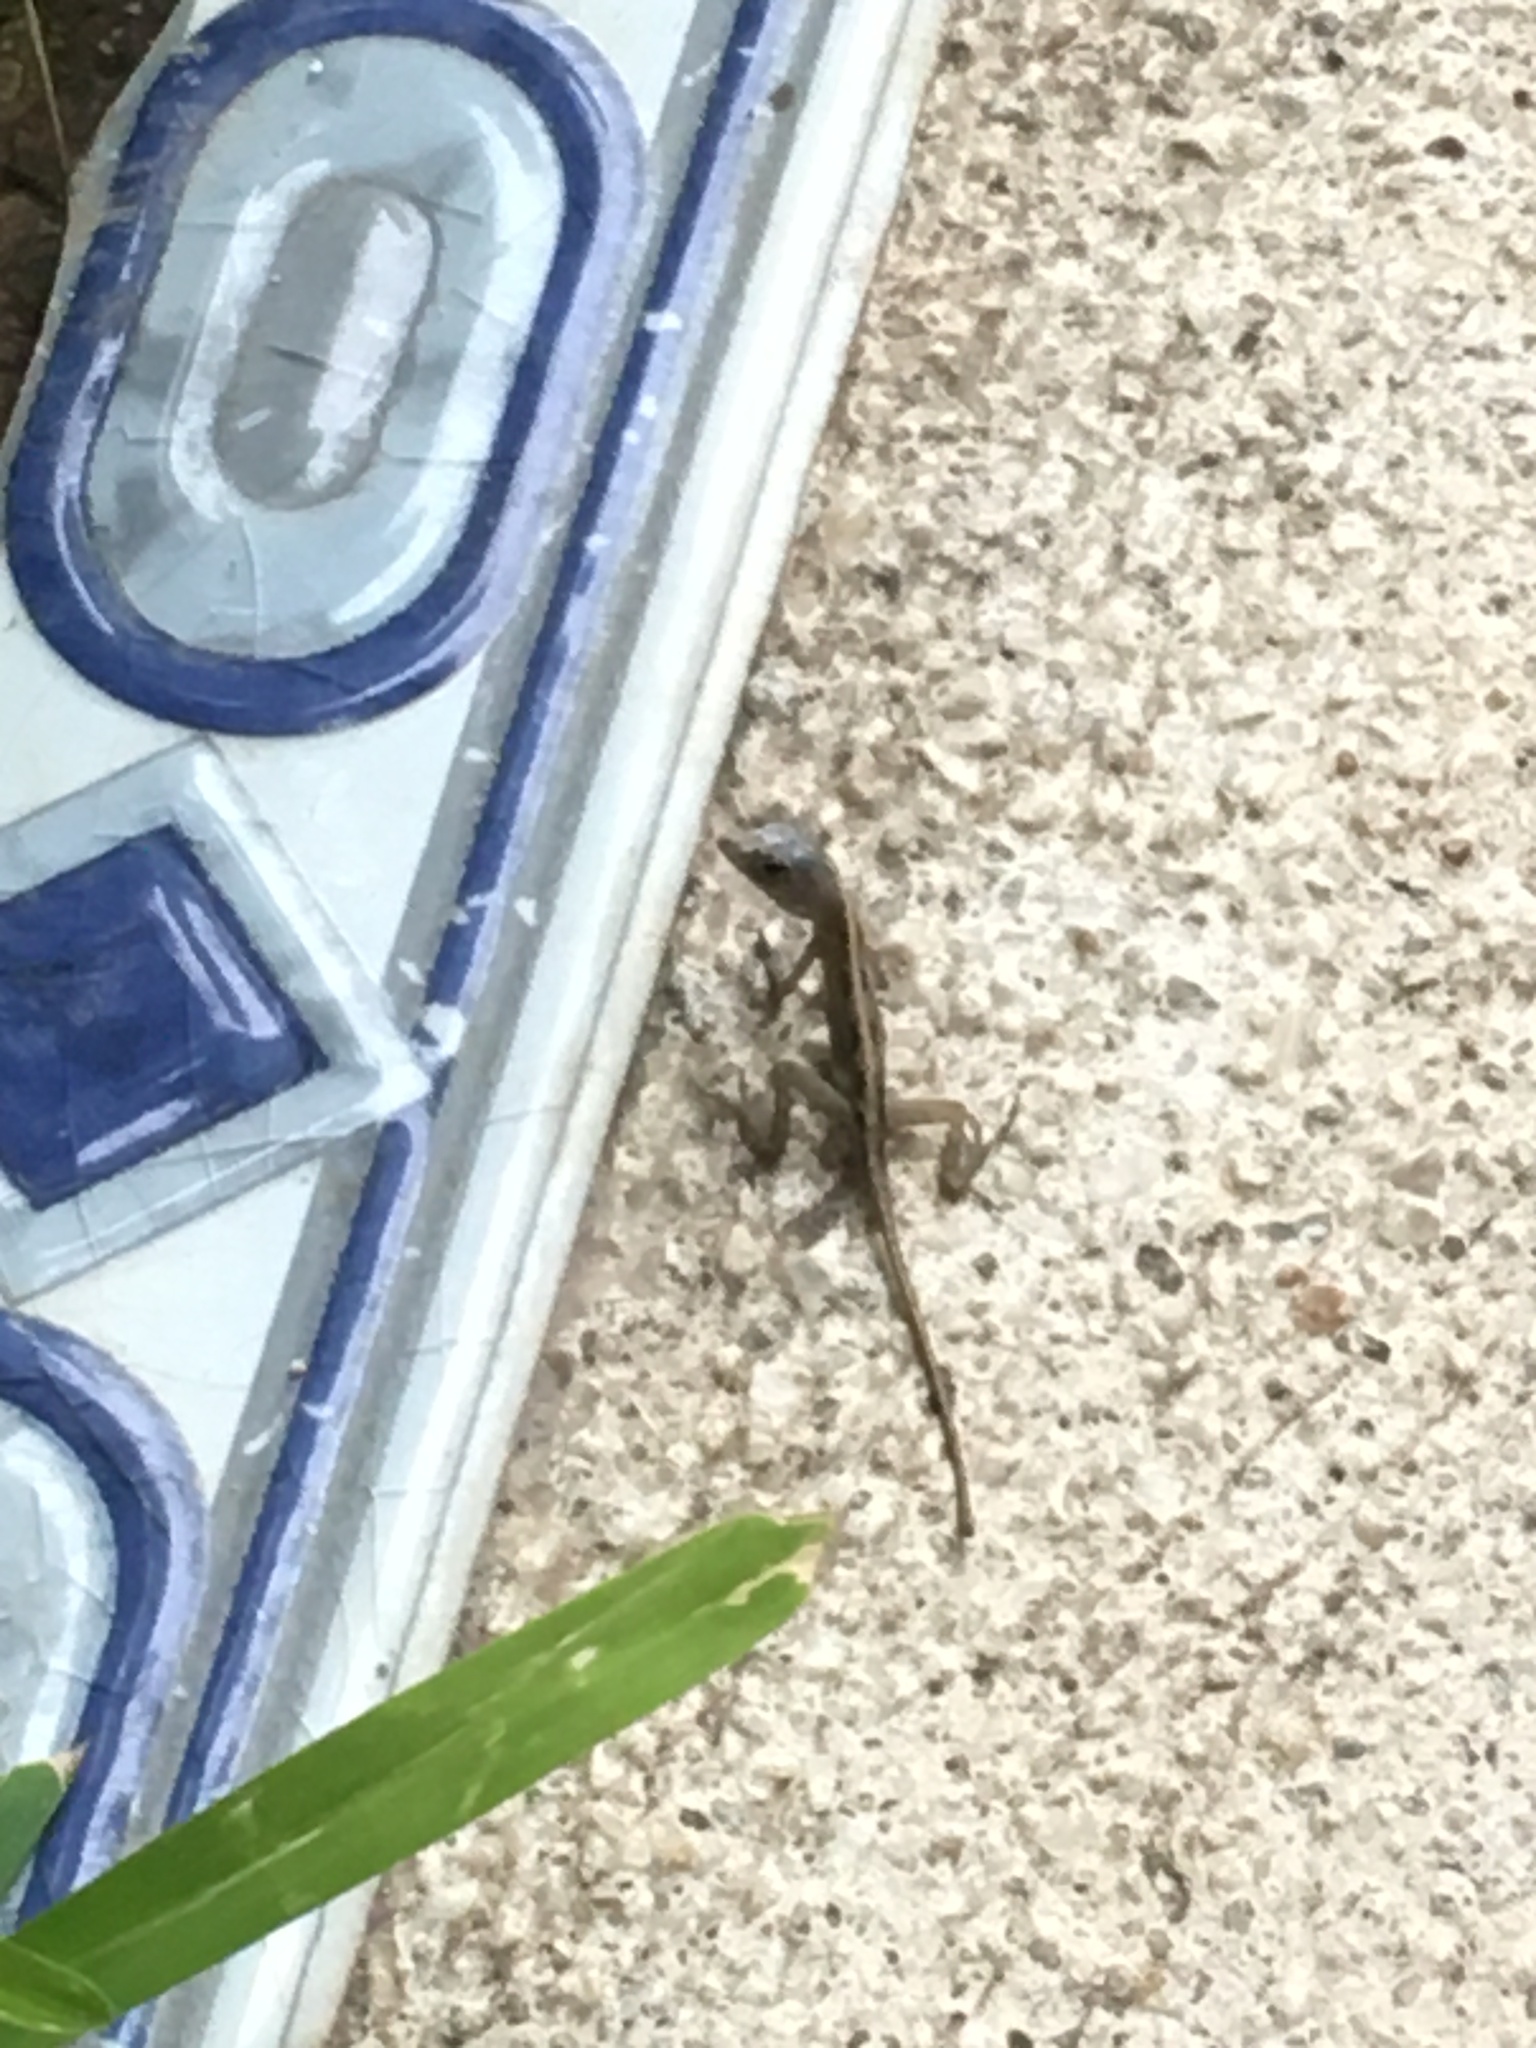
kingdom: Animalia
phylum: Chordata
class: Squamata
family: Dactyloidae
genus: Anolis
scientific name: Anolis sagrei
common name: Brown anole
